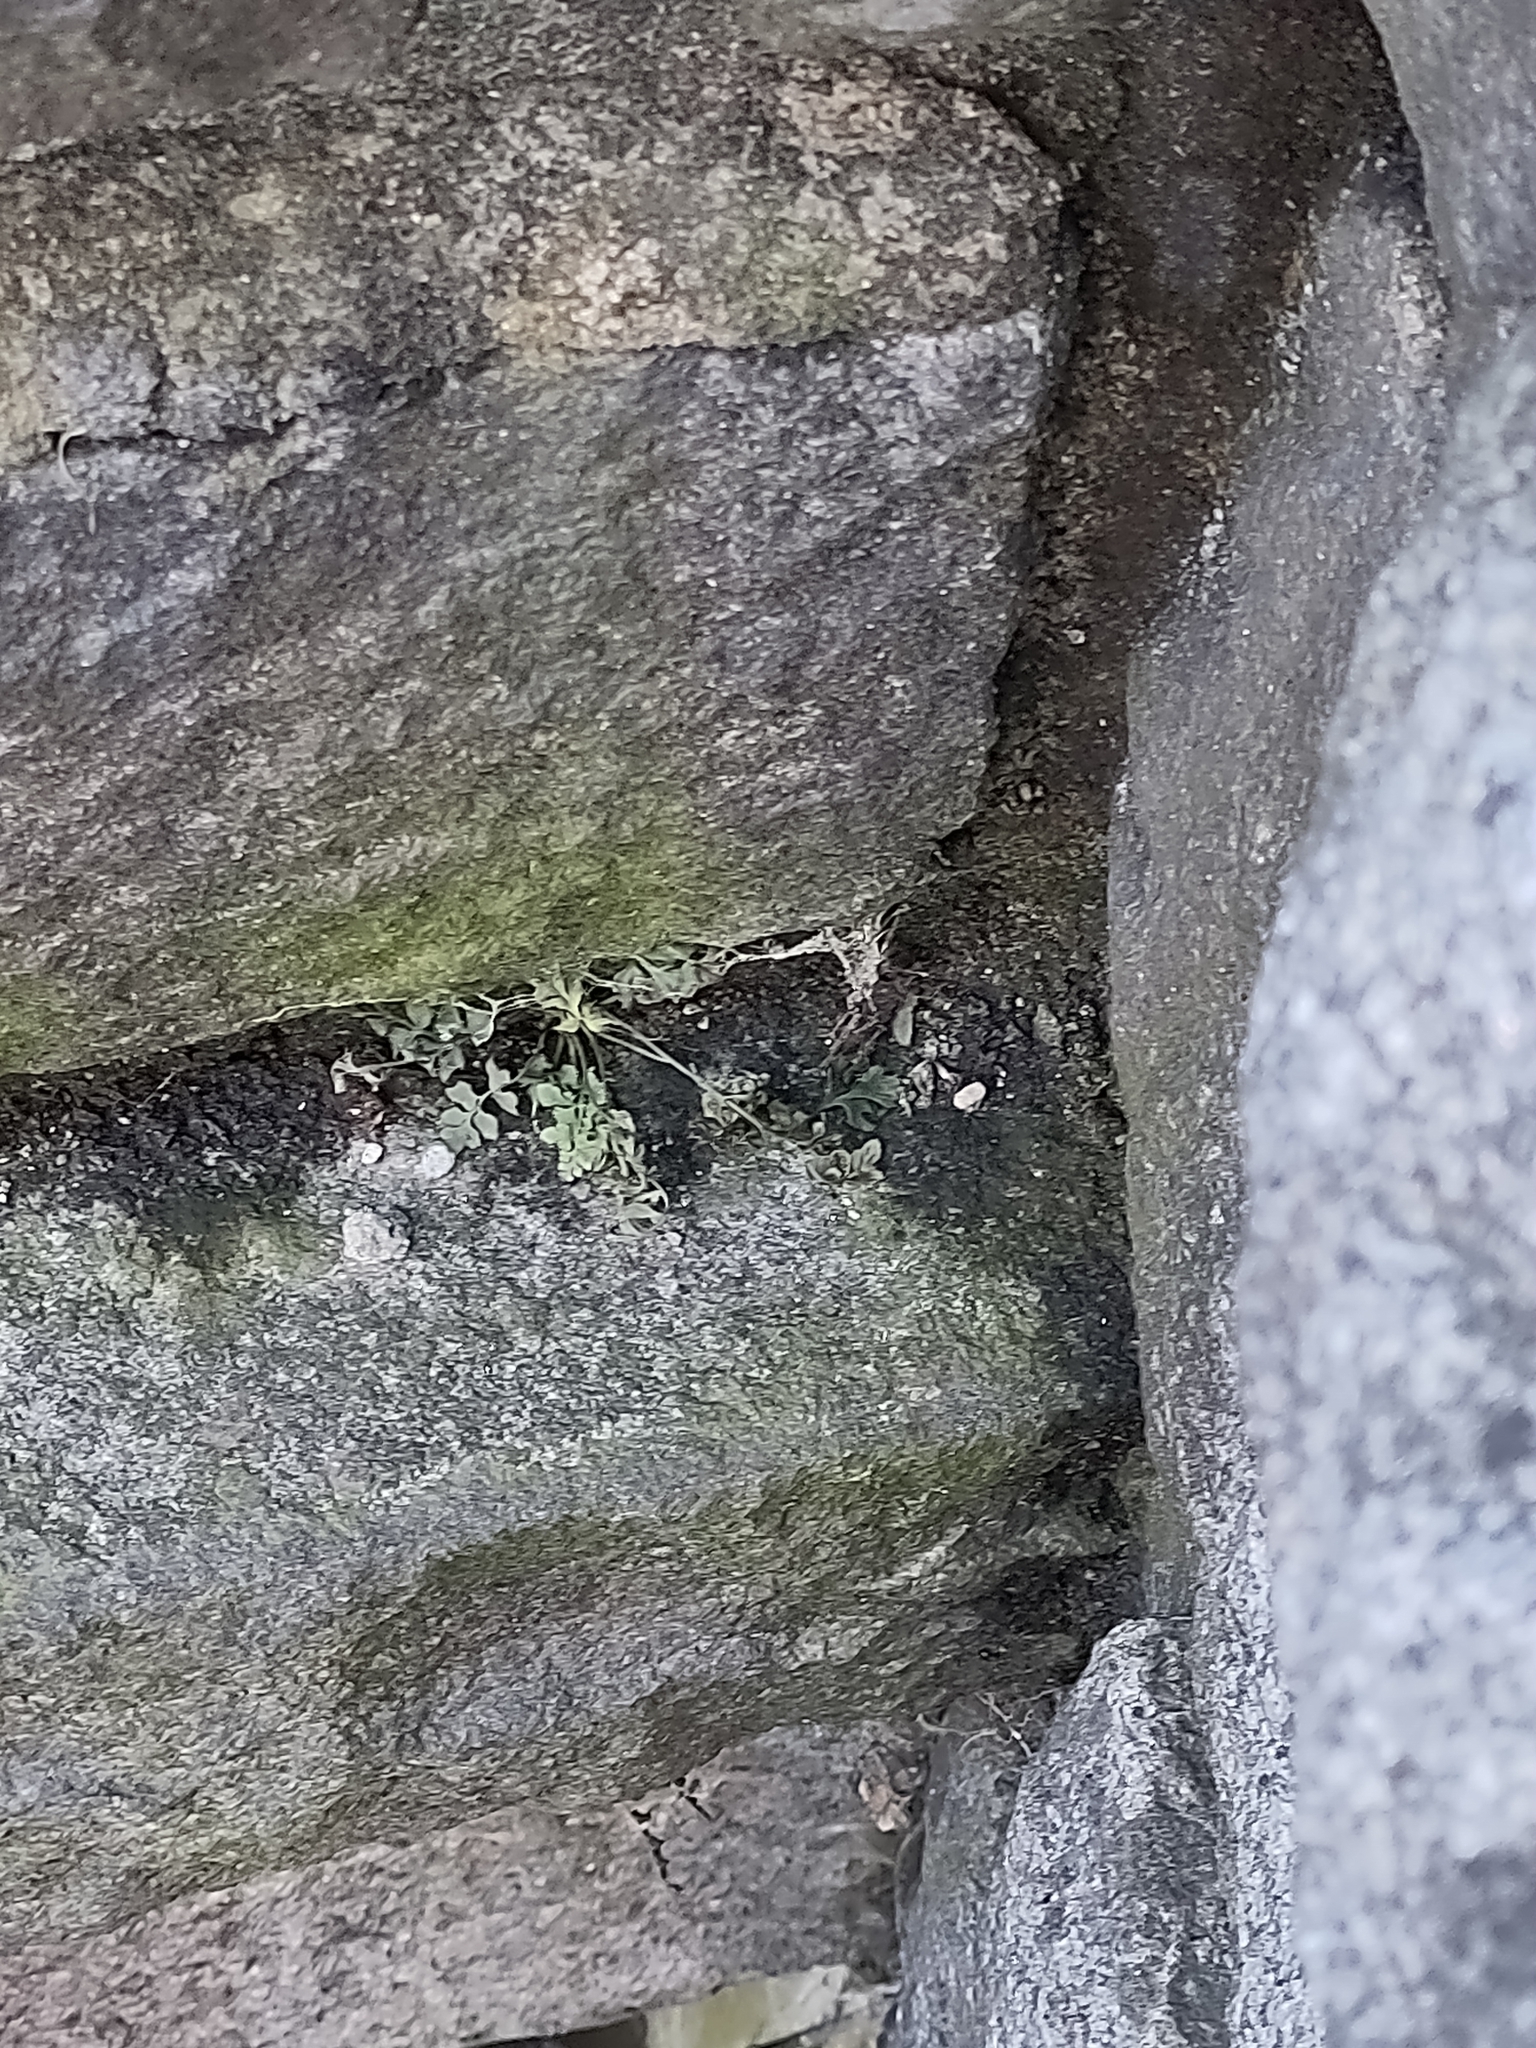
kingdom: Plantae
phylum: Tracheophyta
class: Polypodiopsida
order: Polypodiales
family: Aspleniaceae
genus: Asplenium
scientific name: Asplenium ruta-muraria
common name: Wall-rue
